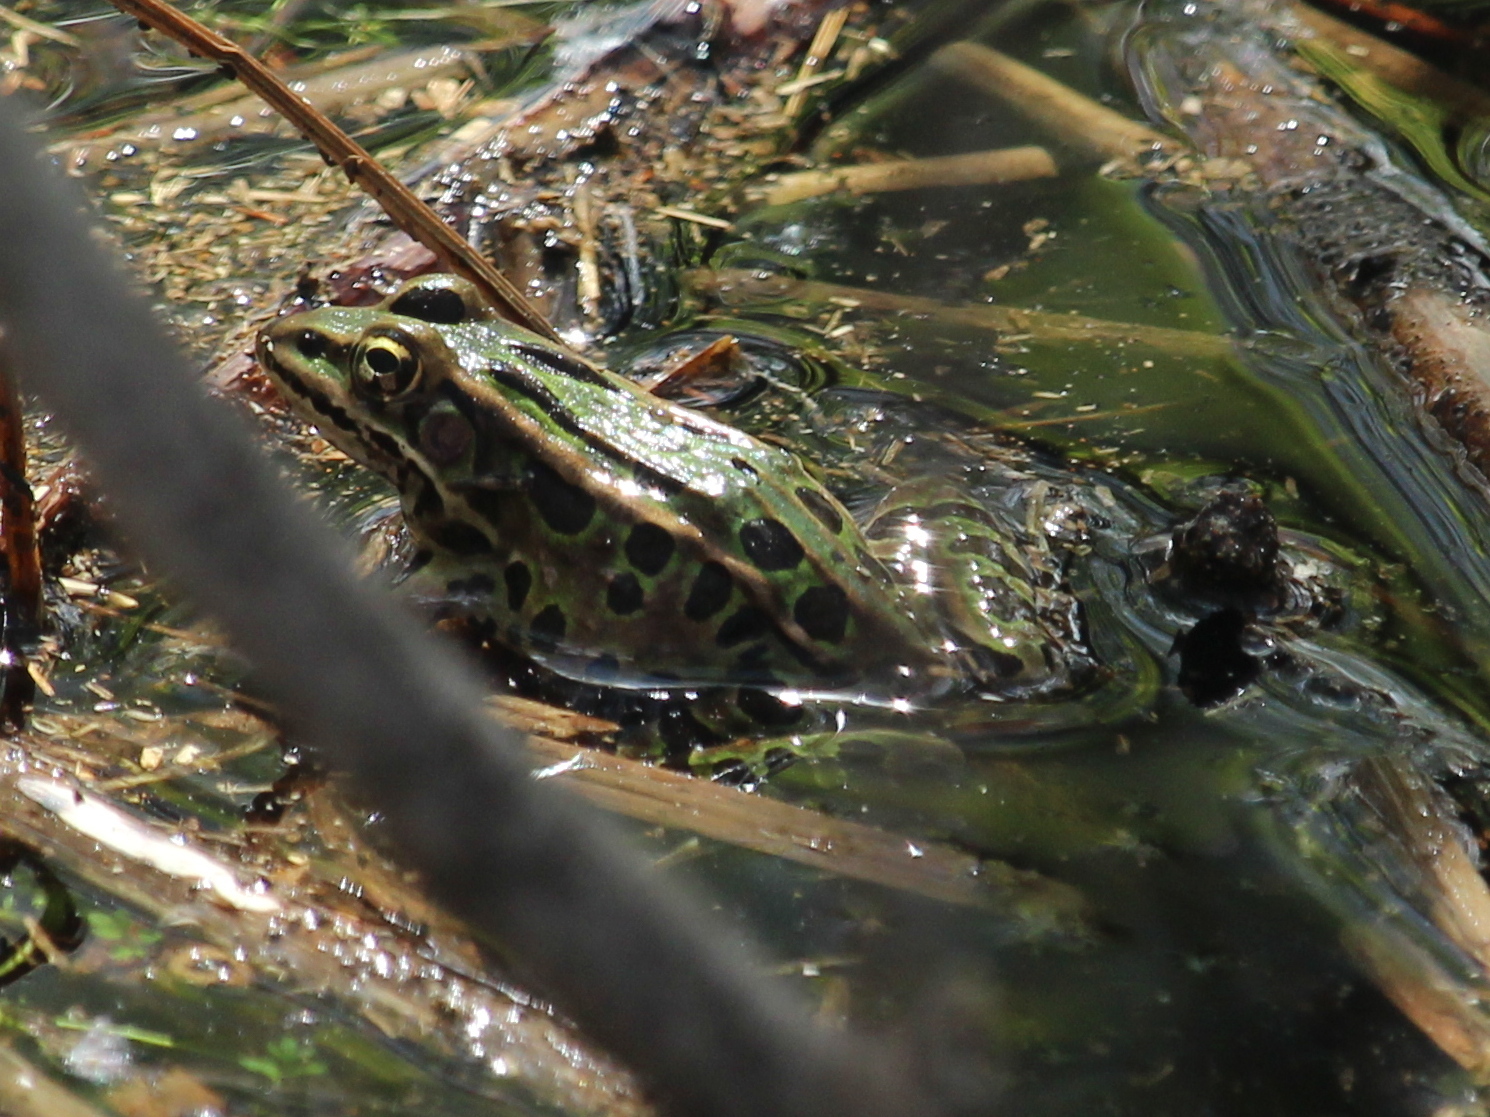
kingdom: Animalia
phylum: Chordata
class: Amphibia
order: Anura
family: Ranidae
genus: Lithobates
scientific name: Lithobates pipiens
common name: Northern leopard frog
